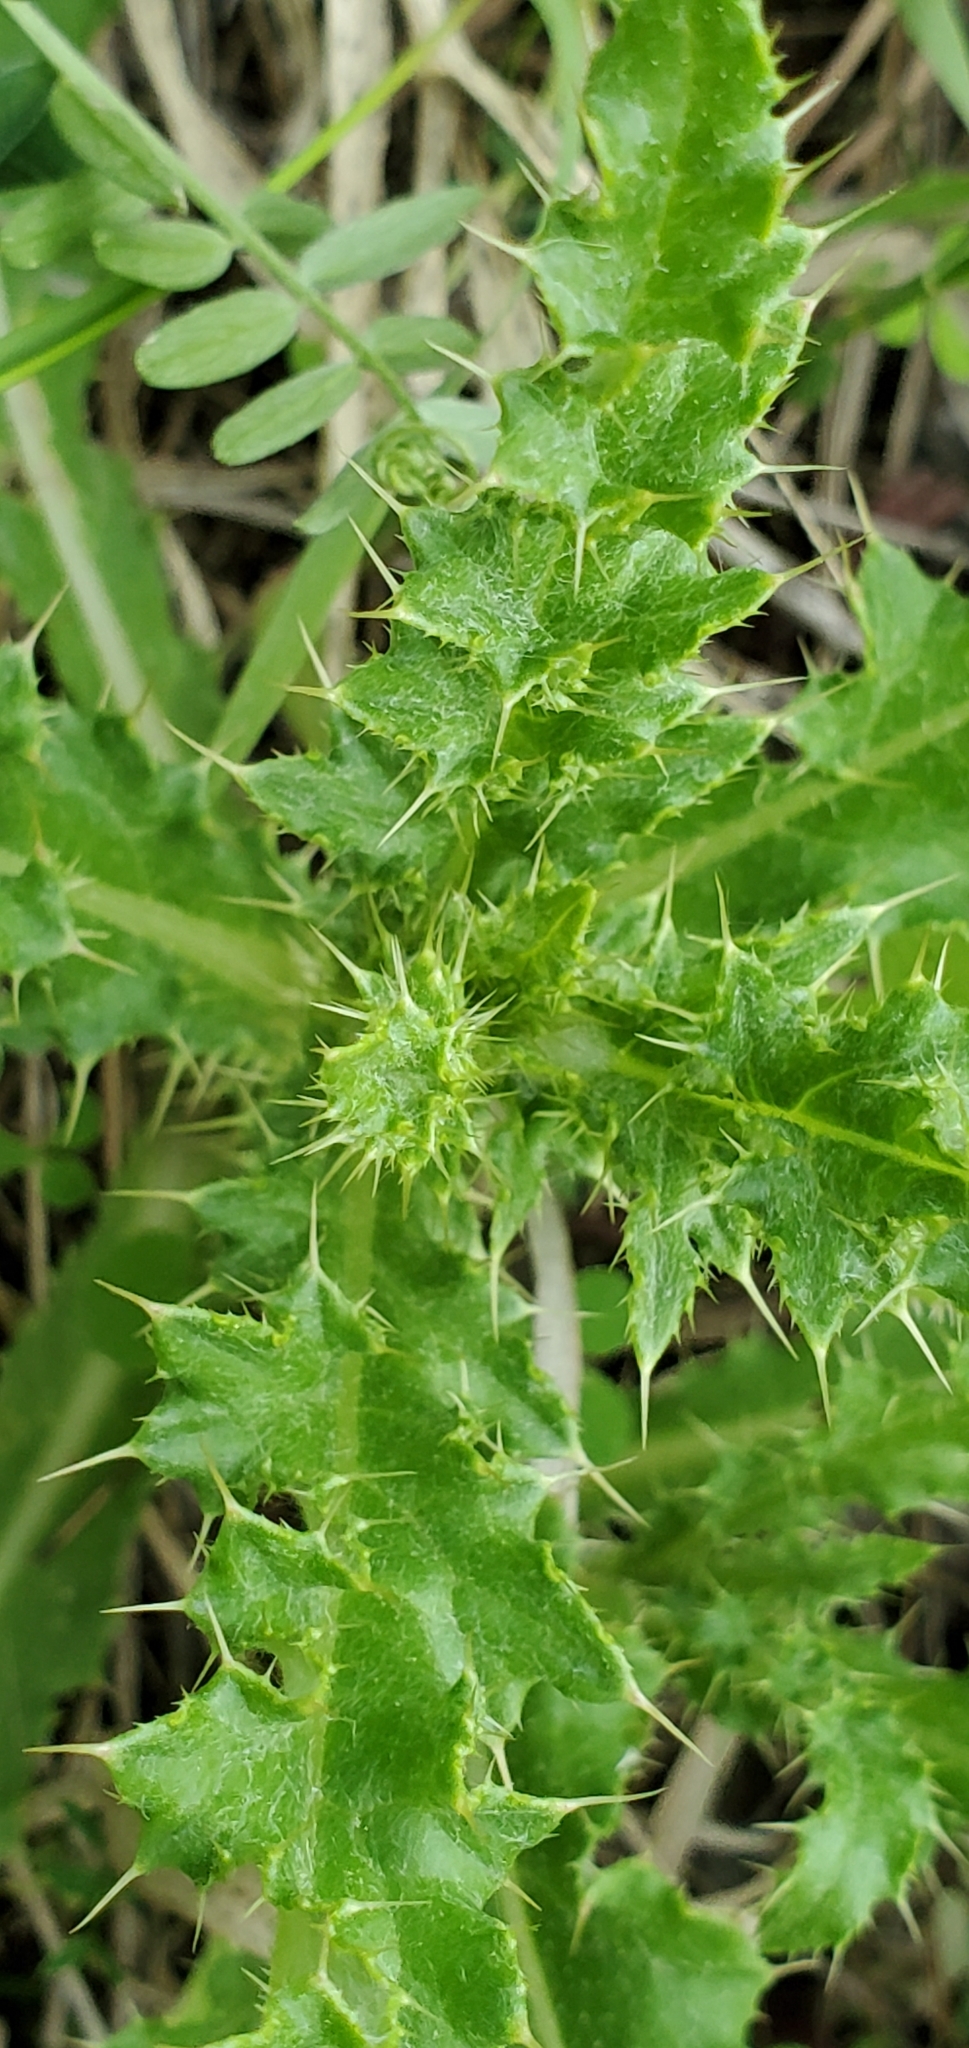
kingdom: Plantae
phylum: Tracheophyta
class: Magnoliopsida
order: Asterales
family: Asteraceae
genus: Cirsium
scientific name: Cirsium arvense
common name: Creeping thistle
